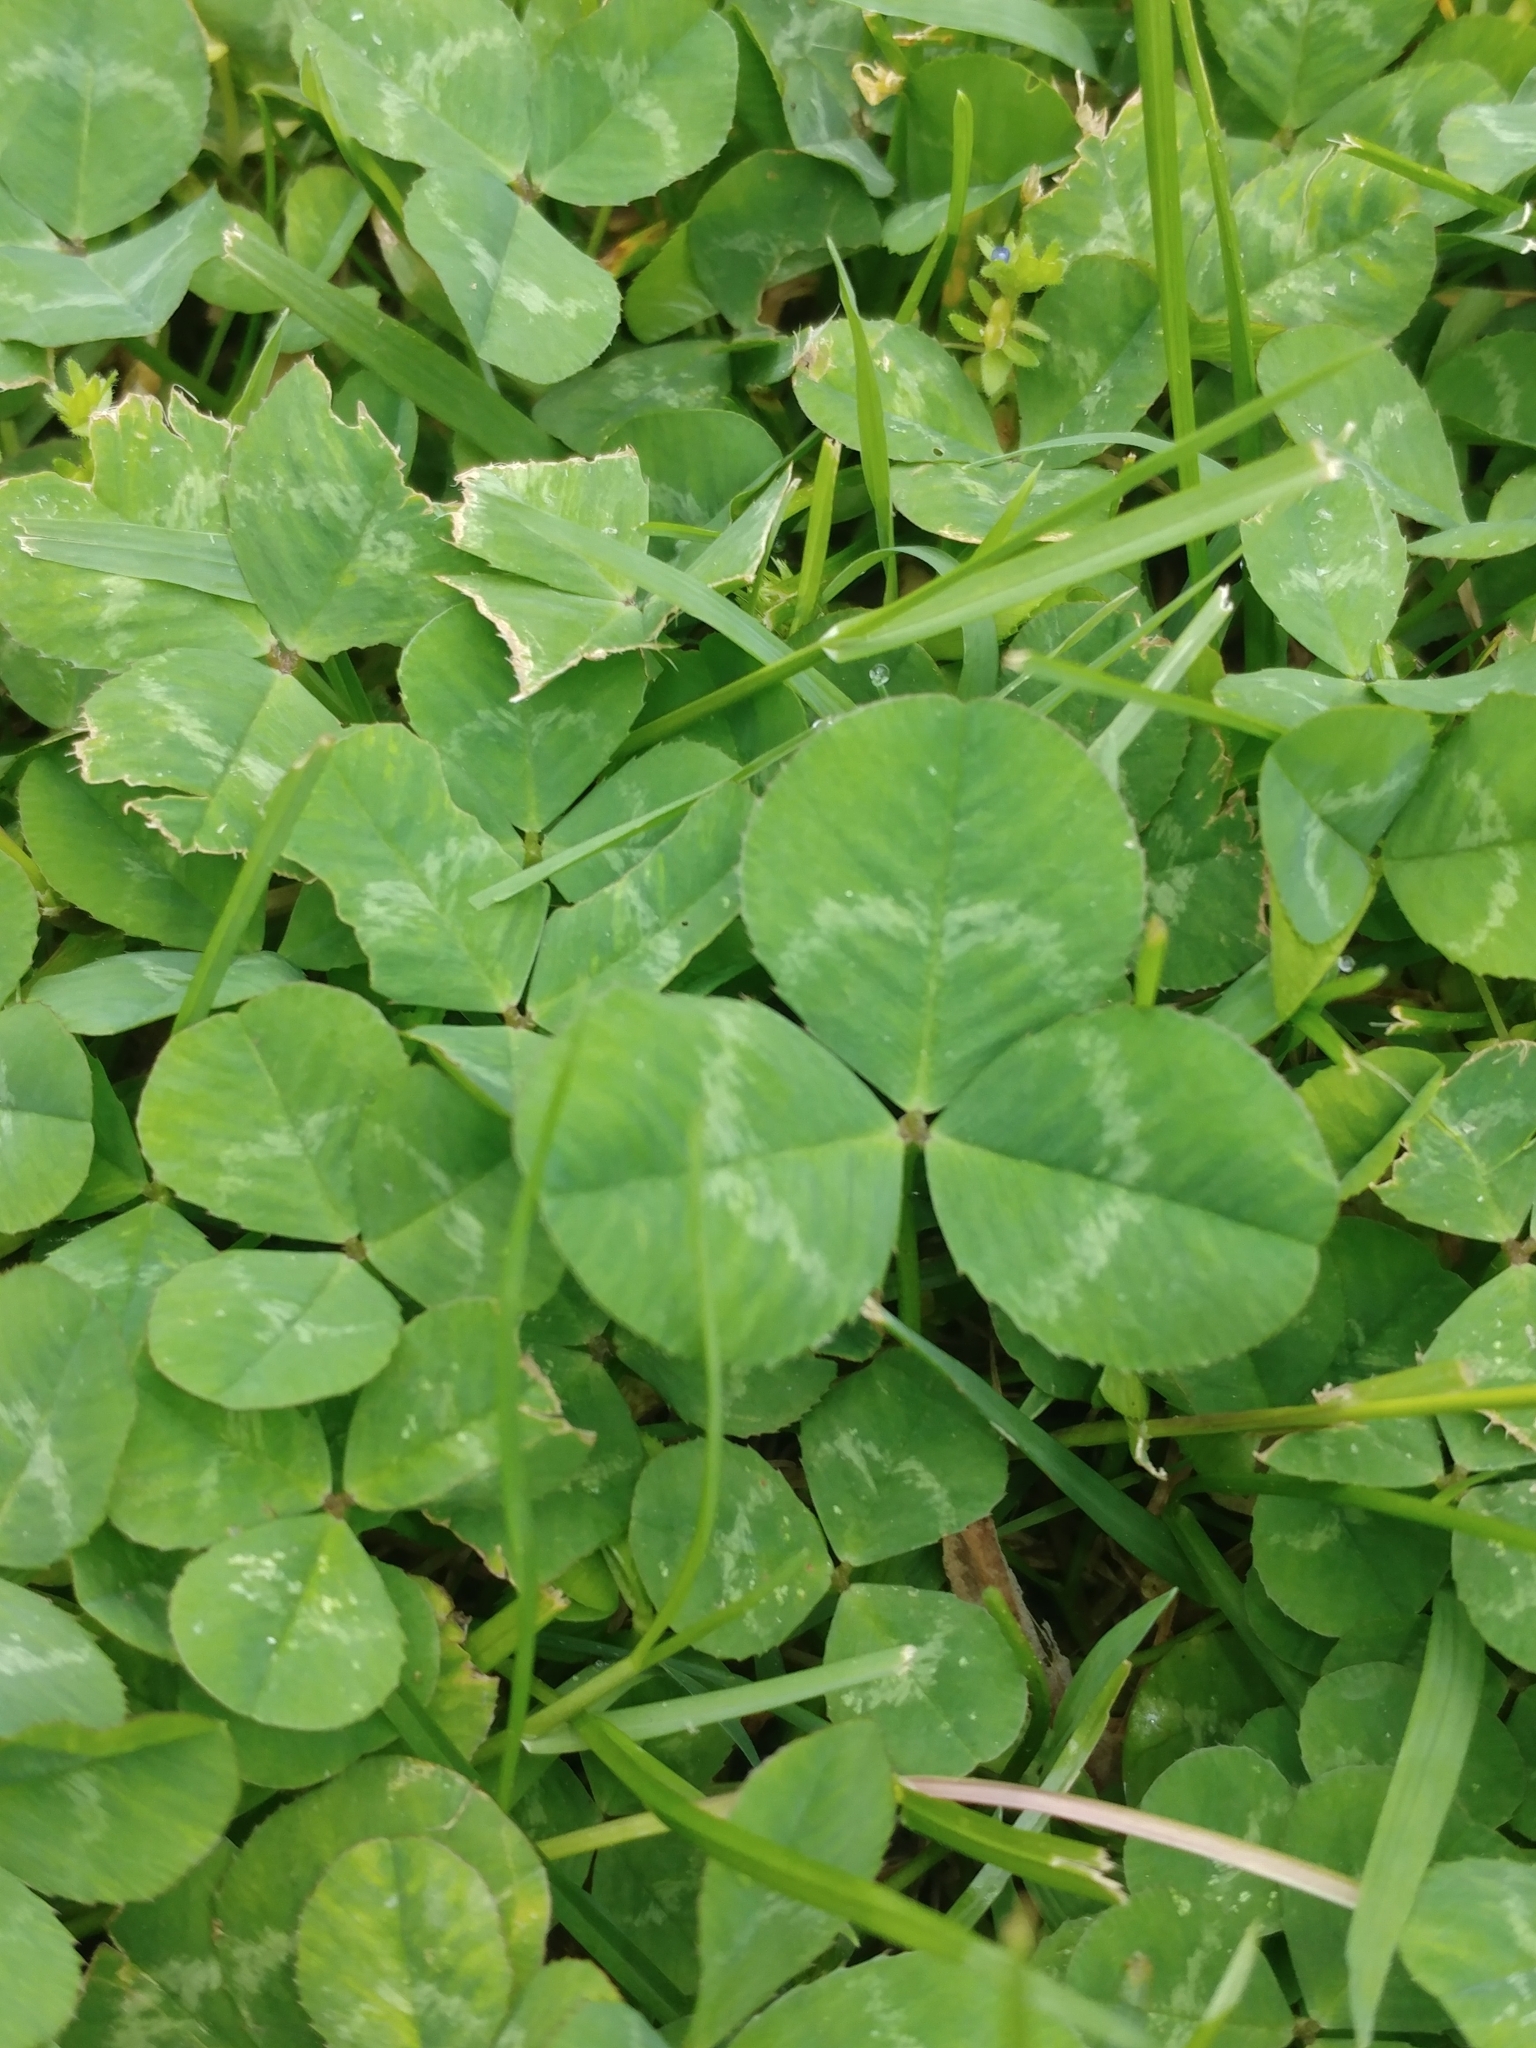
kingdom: Plantae
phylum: Tracheophyta
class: Magnoliopsida
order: Fabales
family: Fabaceae
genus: Trifolium
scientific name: Trifolium repens
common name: White clover
